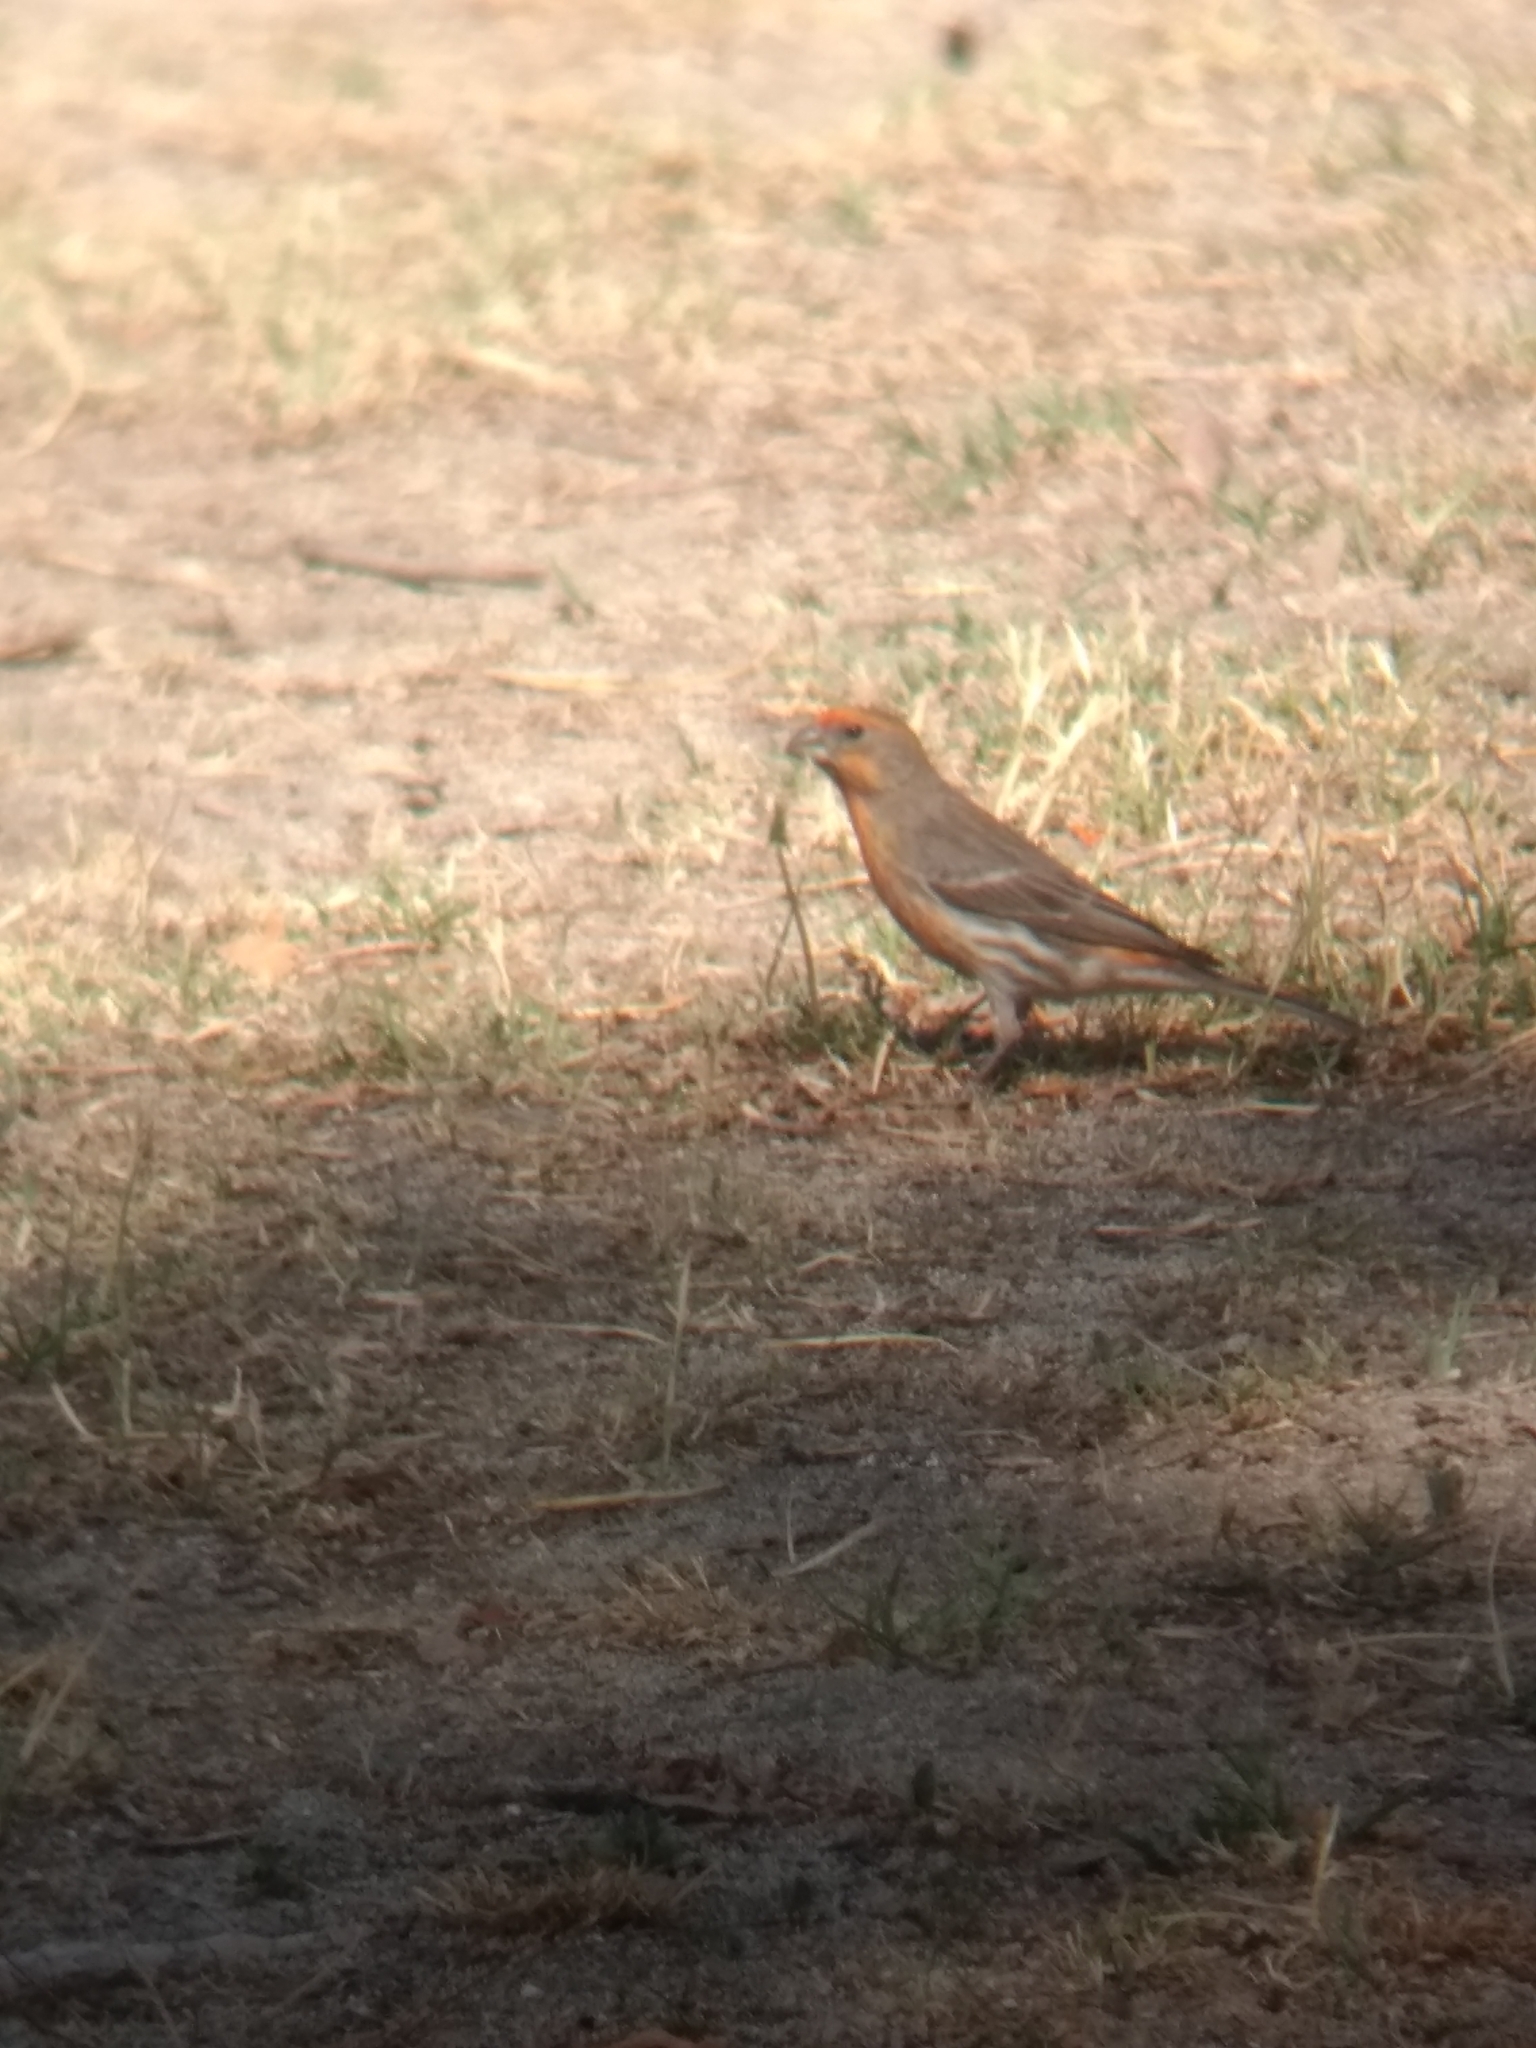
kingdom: Animalia
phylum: Chordata
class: Aves
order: Passeriformes
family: Fringillidae
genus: Haemorhous
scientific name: Haemorhous mexicanus
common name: House finch
